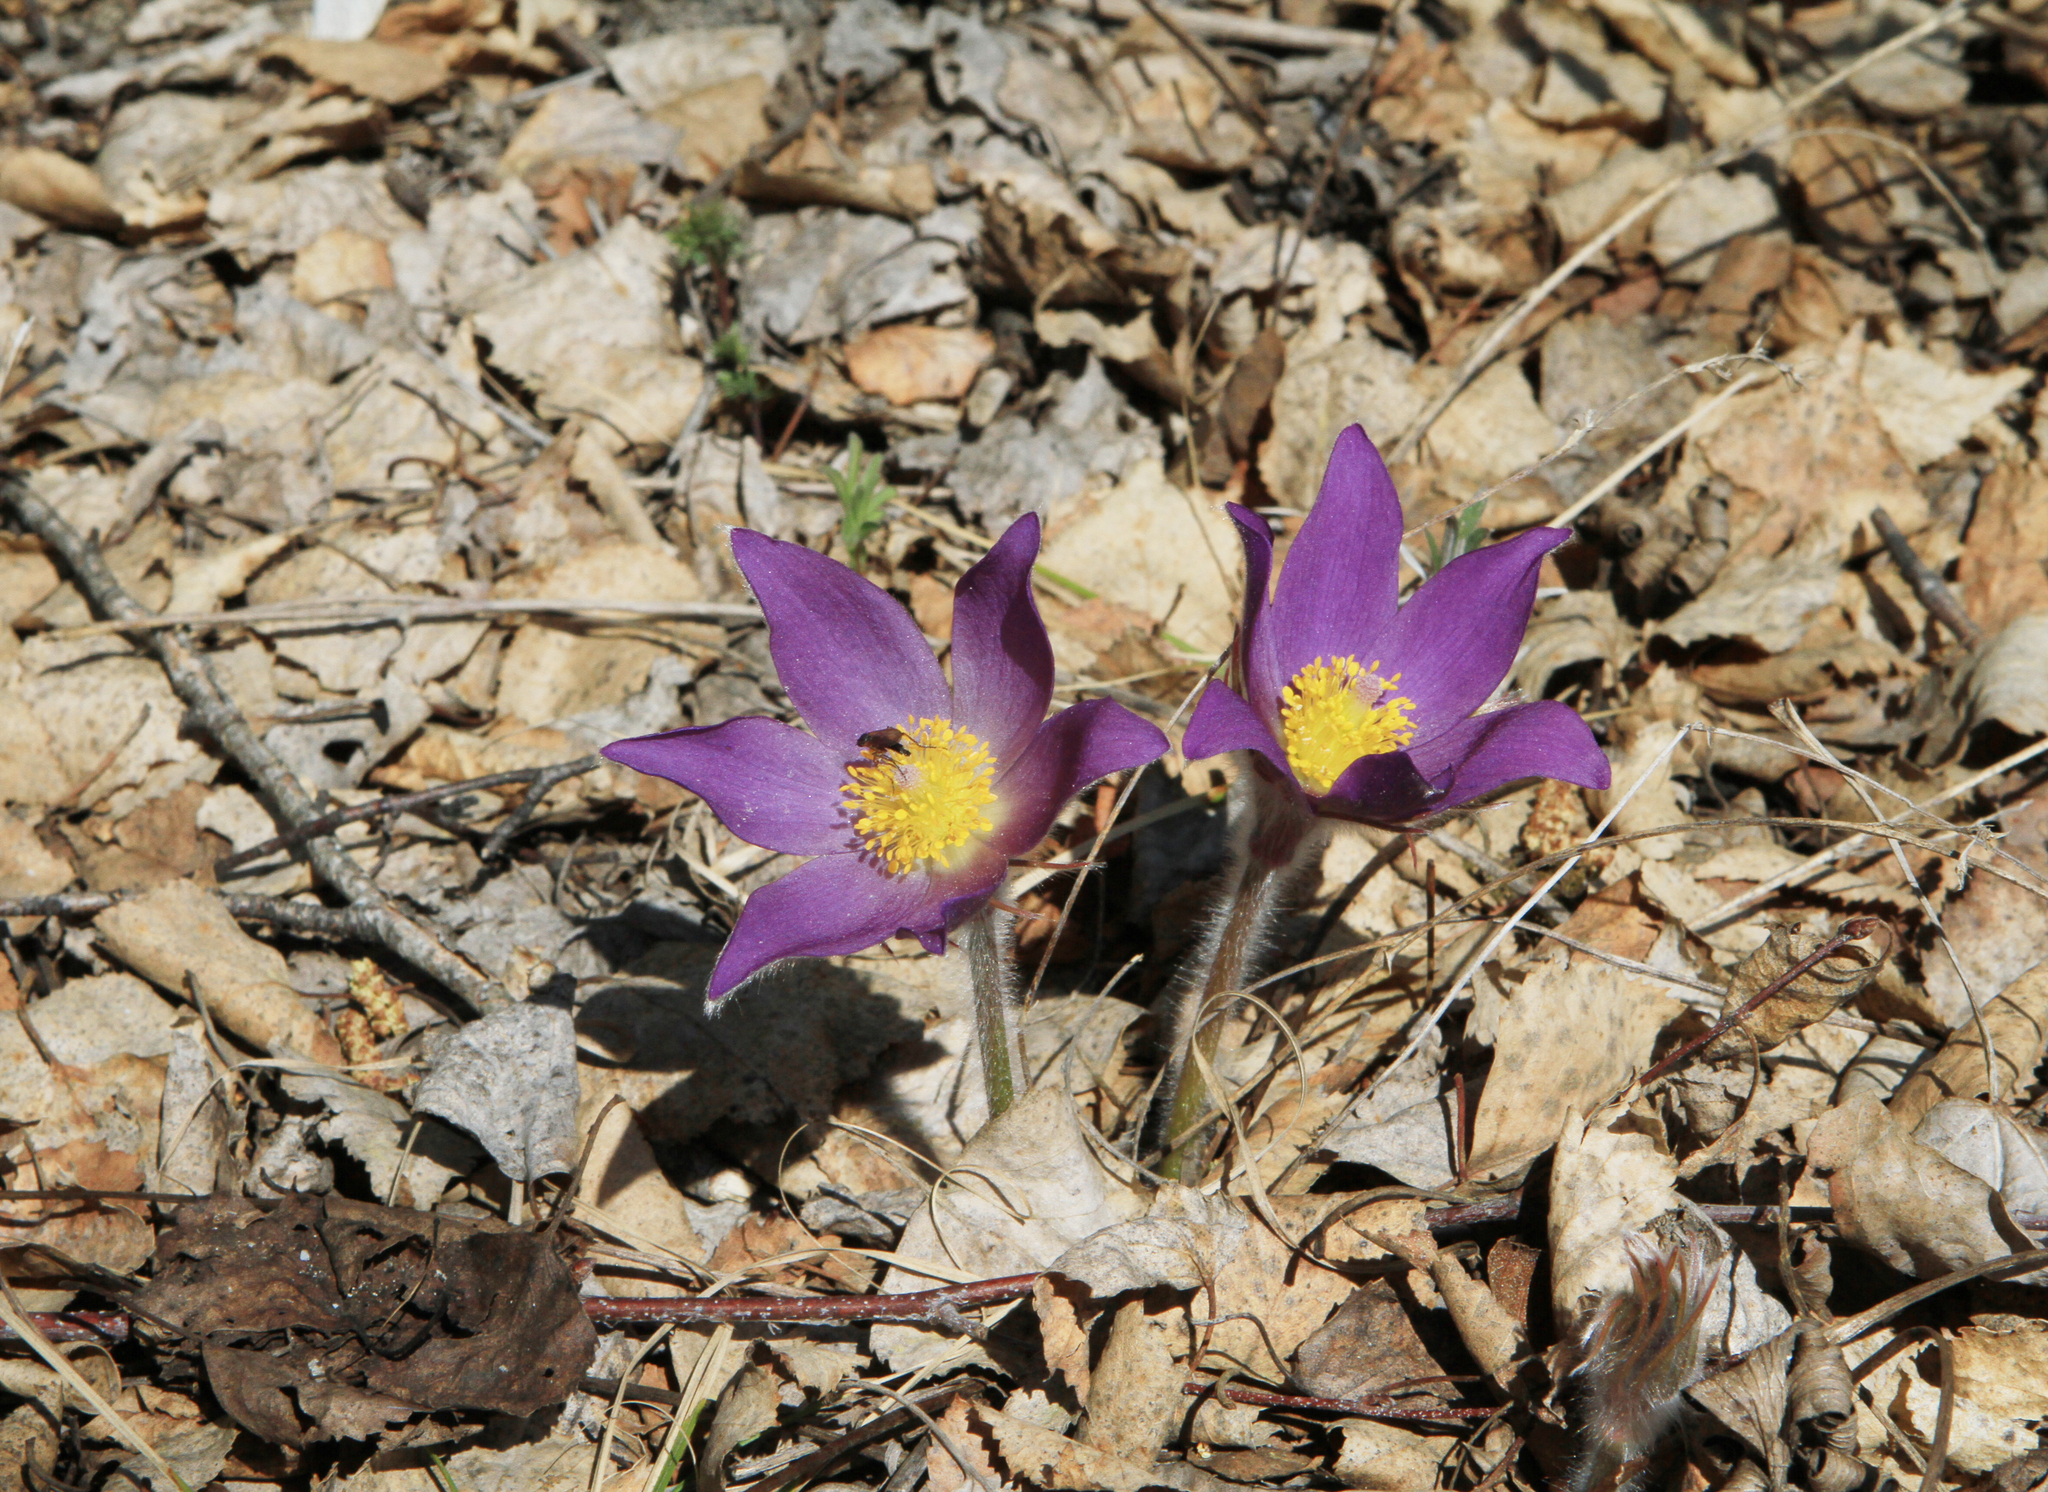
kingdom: Plantae
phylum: Tracheophyta
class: Magnoliopsida
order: Ranunculales
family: Ranunculaceae
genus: Pulsatilla
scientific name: Pulsatilla patens
